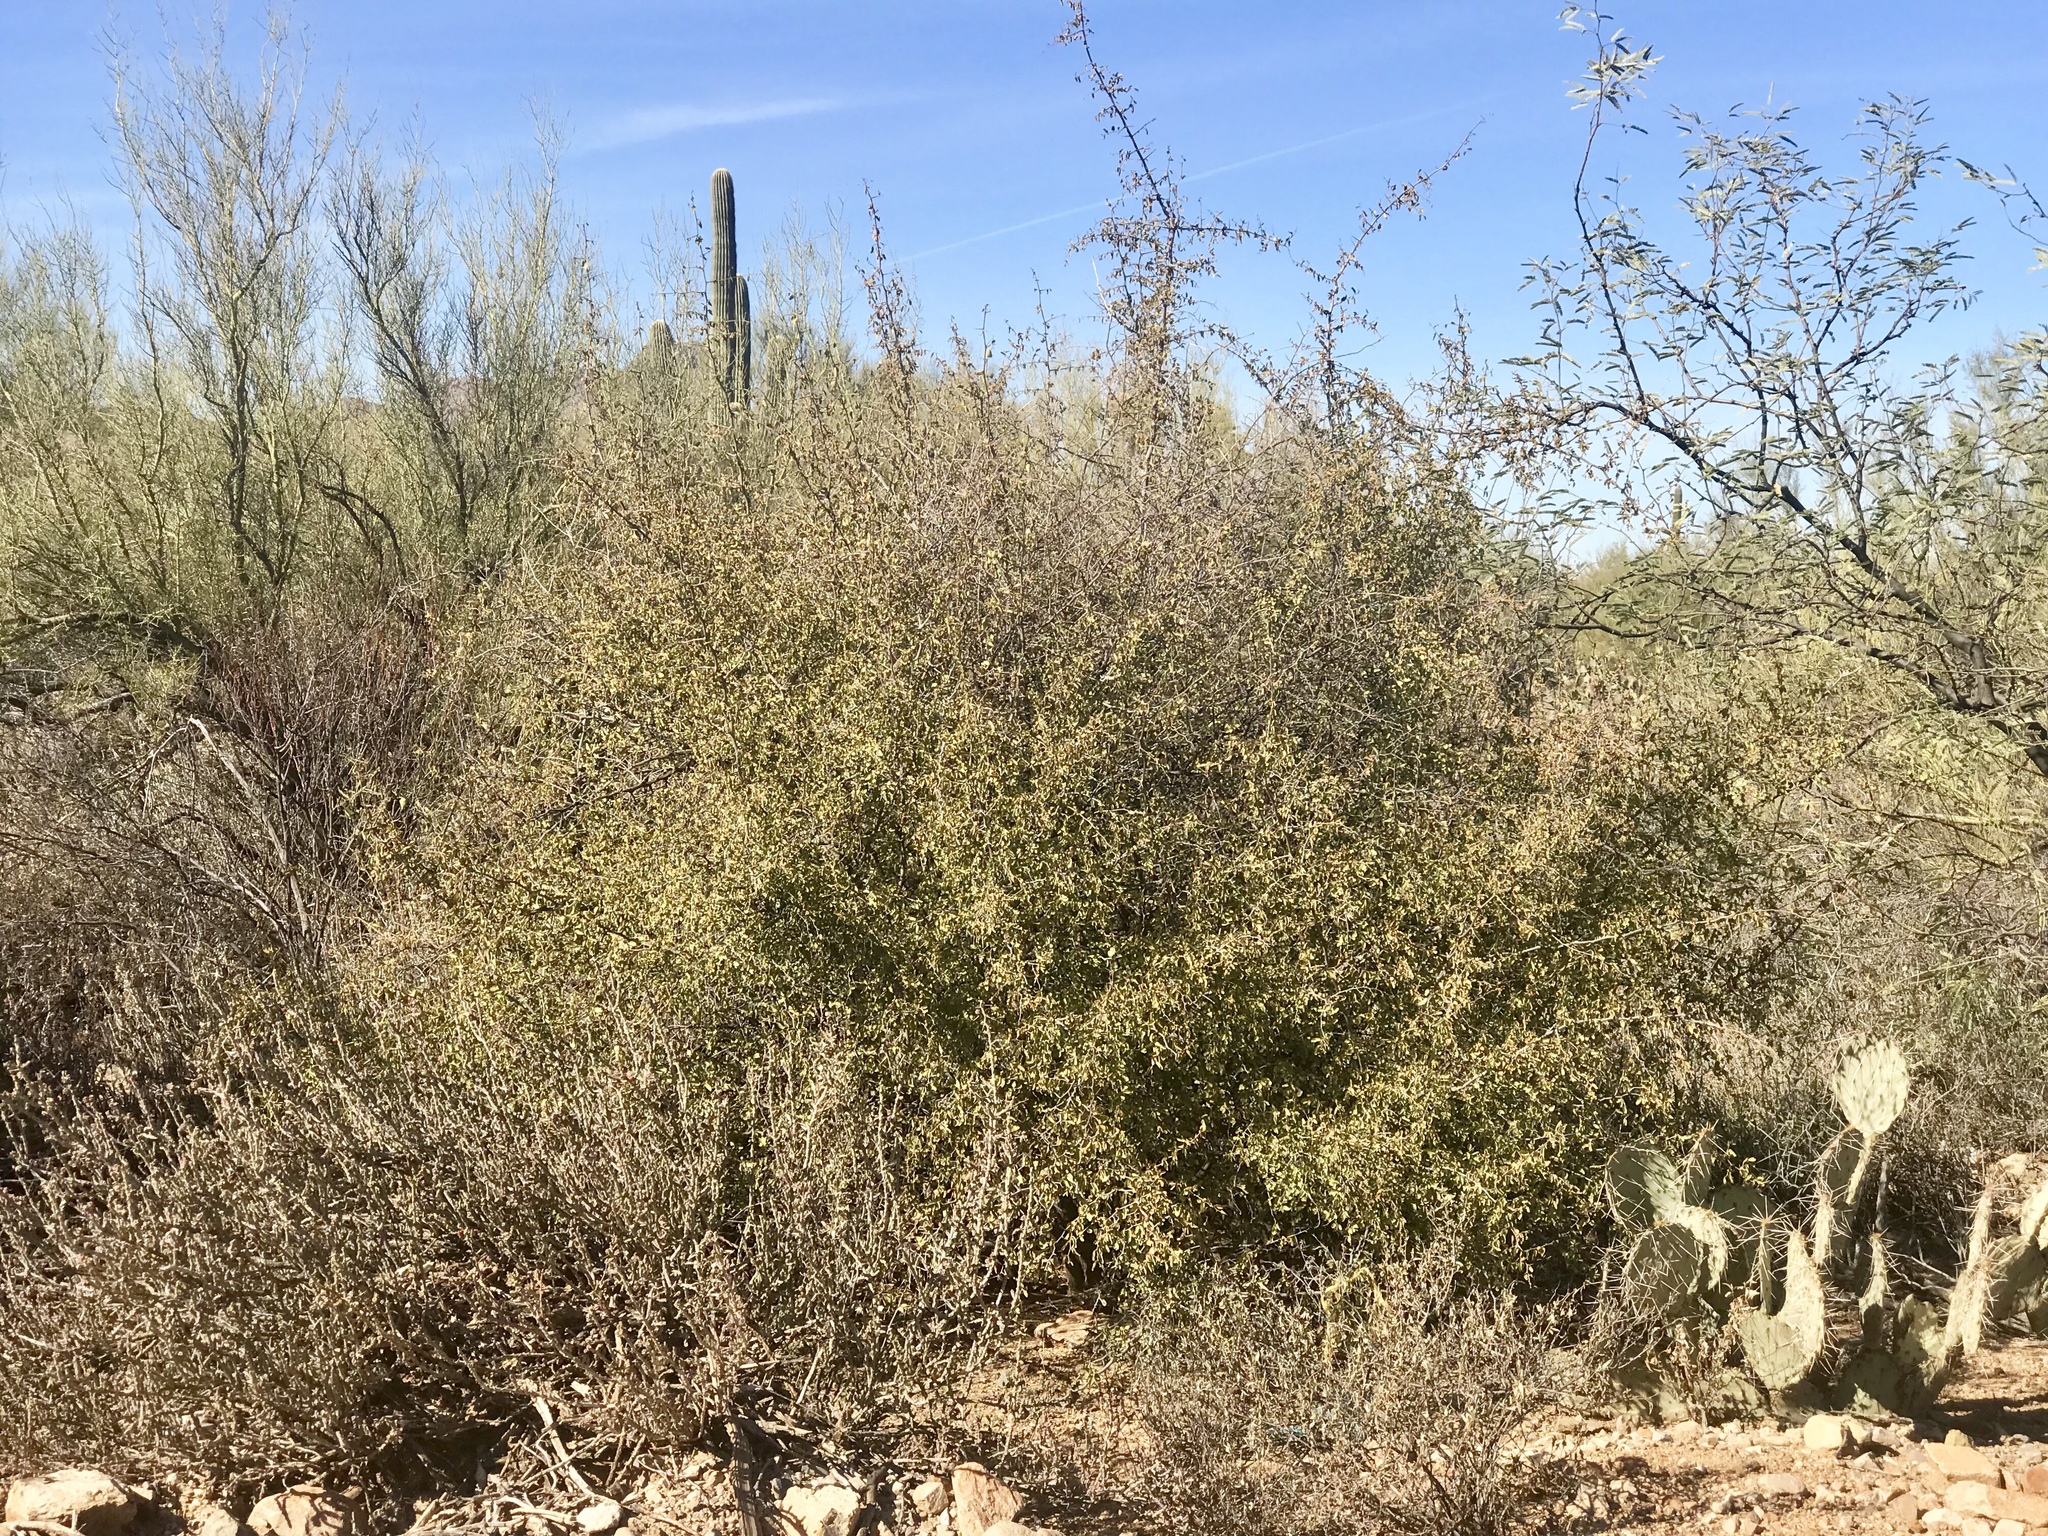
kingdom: Plantae
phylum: Tracheophyta
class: Magnoliopsida
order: Rosales
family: Cannabaceae
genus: Celtis
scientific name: Celtis pallida
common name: Desert hackberry
